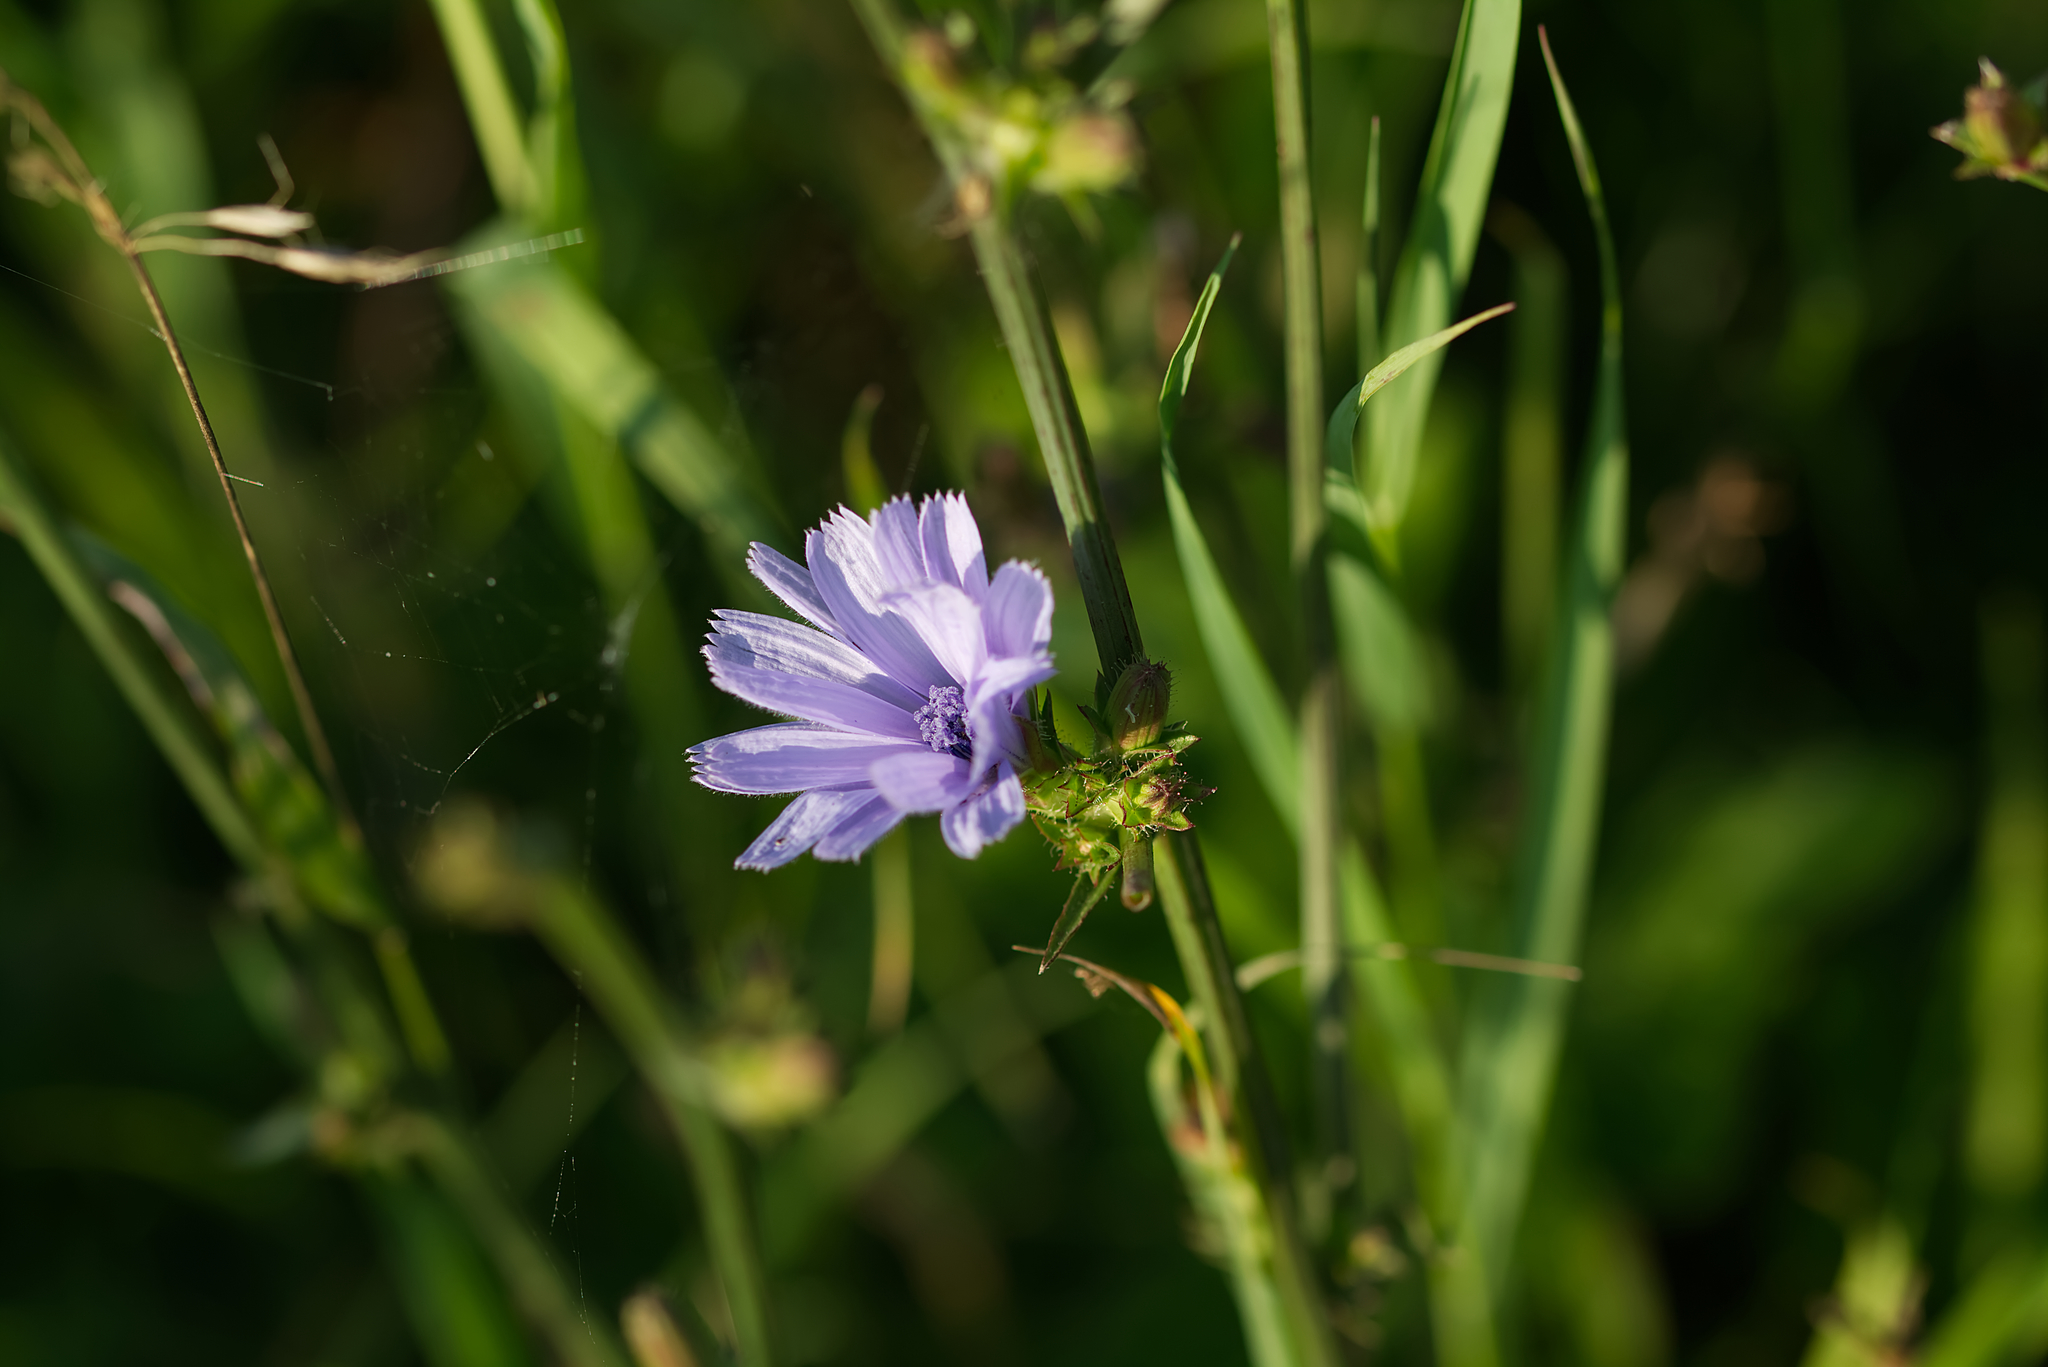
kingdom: Plantae
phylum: Tracheophyta
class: Magnoliopsida
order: Asterales
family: Asteraceae
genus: Cichorium
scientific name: Cichorium intybus
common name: Chicory
